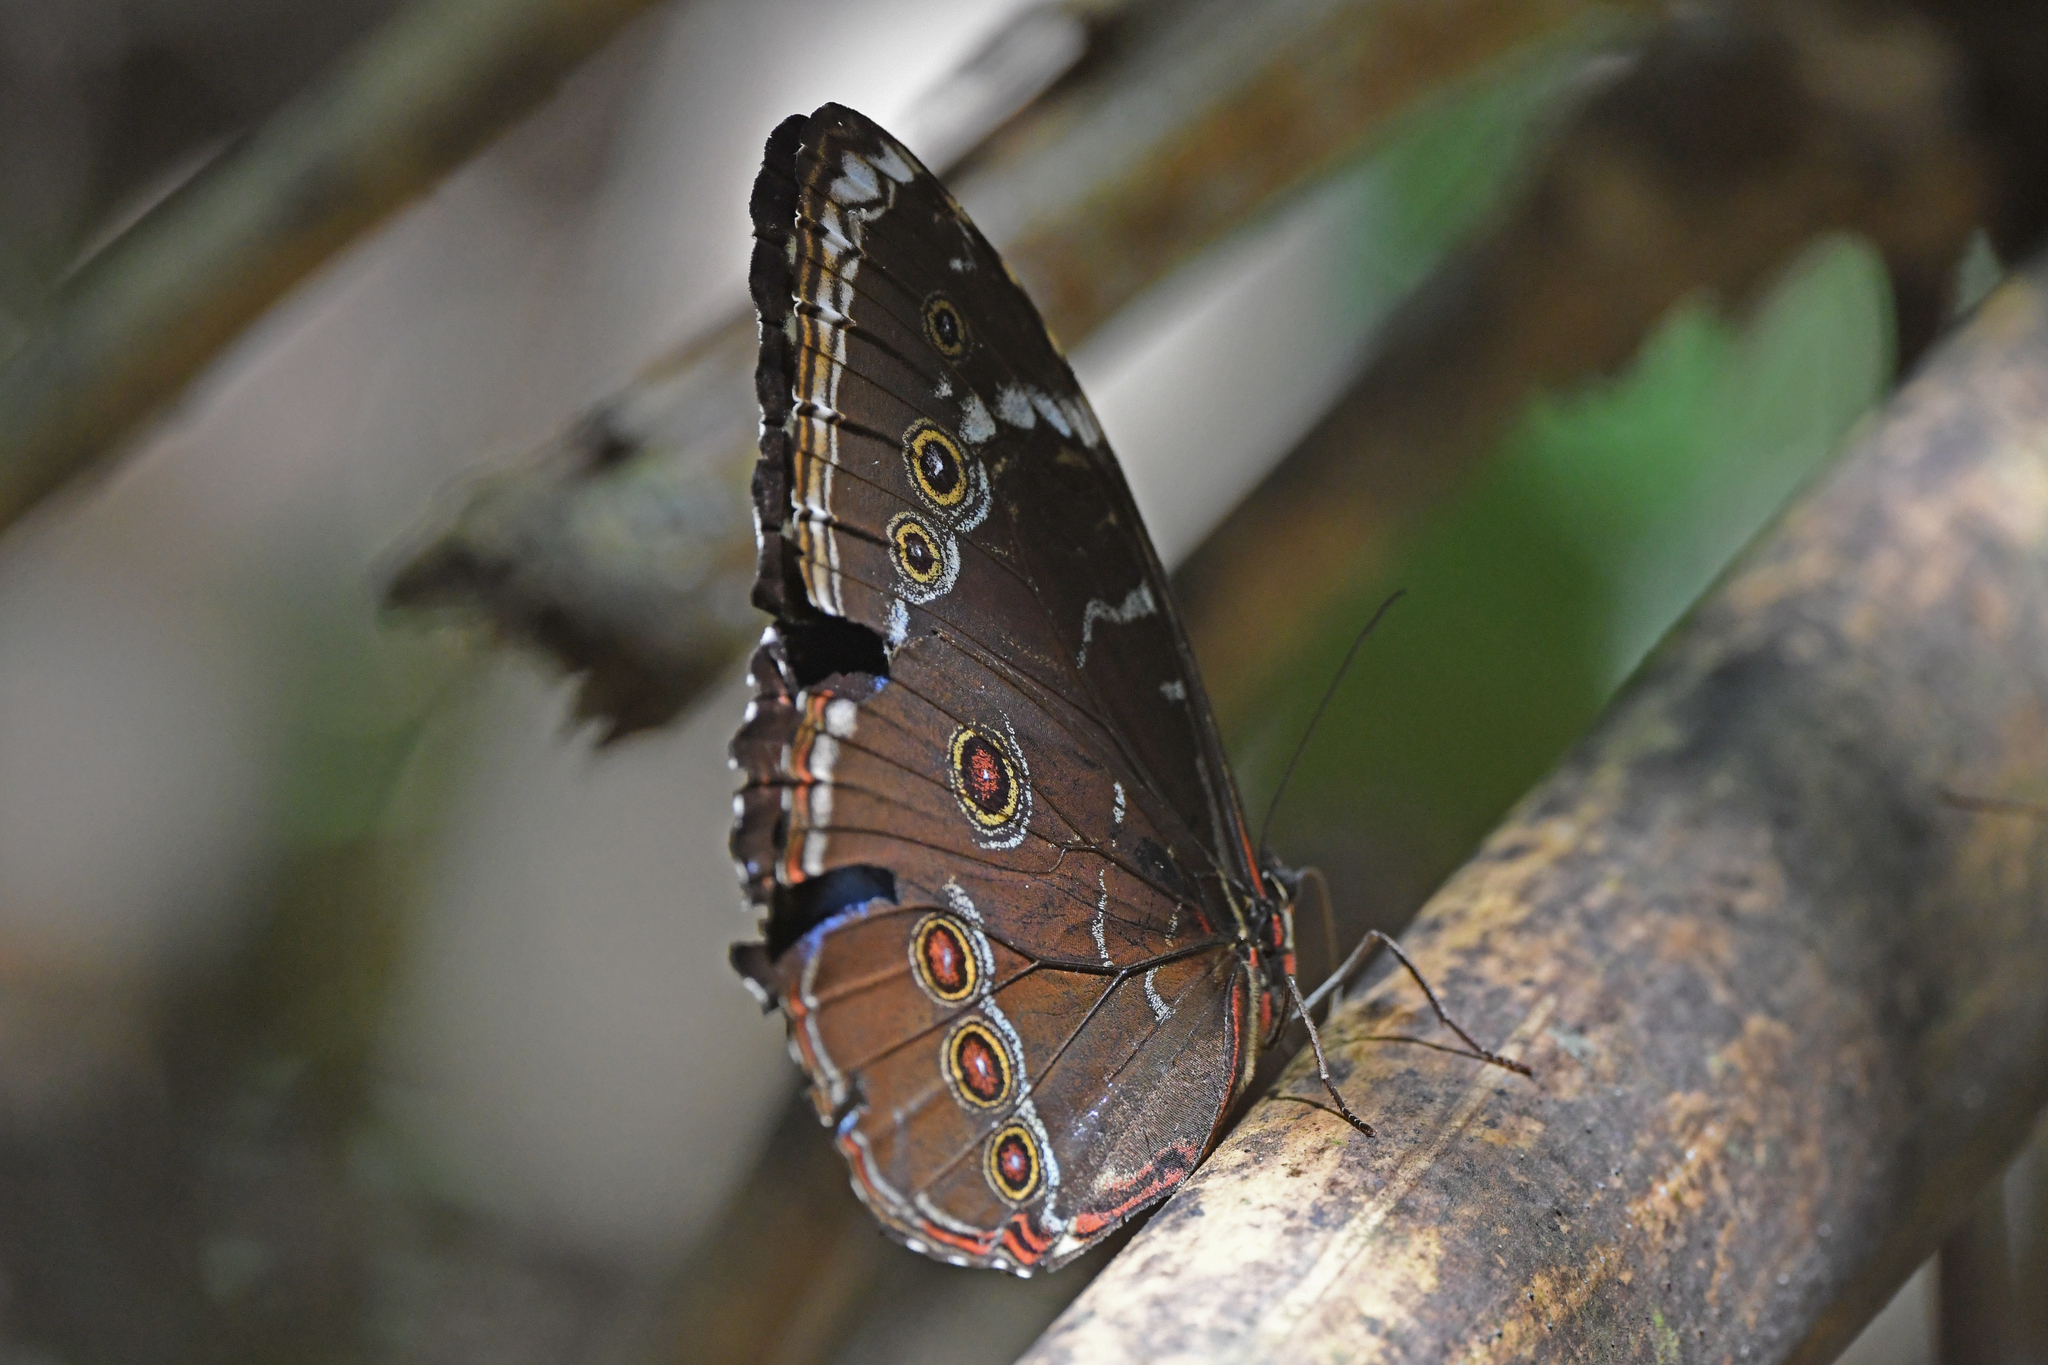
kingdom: Animalia
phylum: Arthropoda
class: Insecta
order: Lepidoptera
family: Nymphalidae
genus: Morpho
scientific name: Morpho achilles
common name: Achilles morpho
